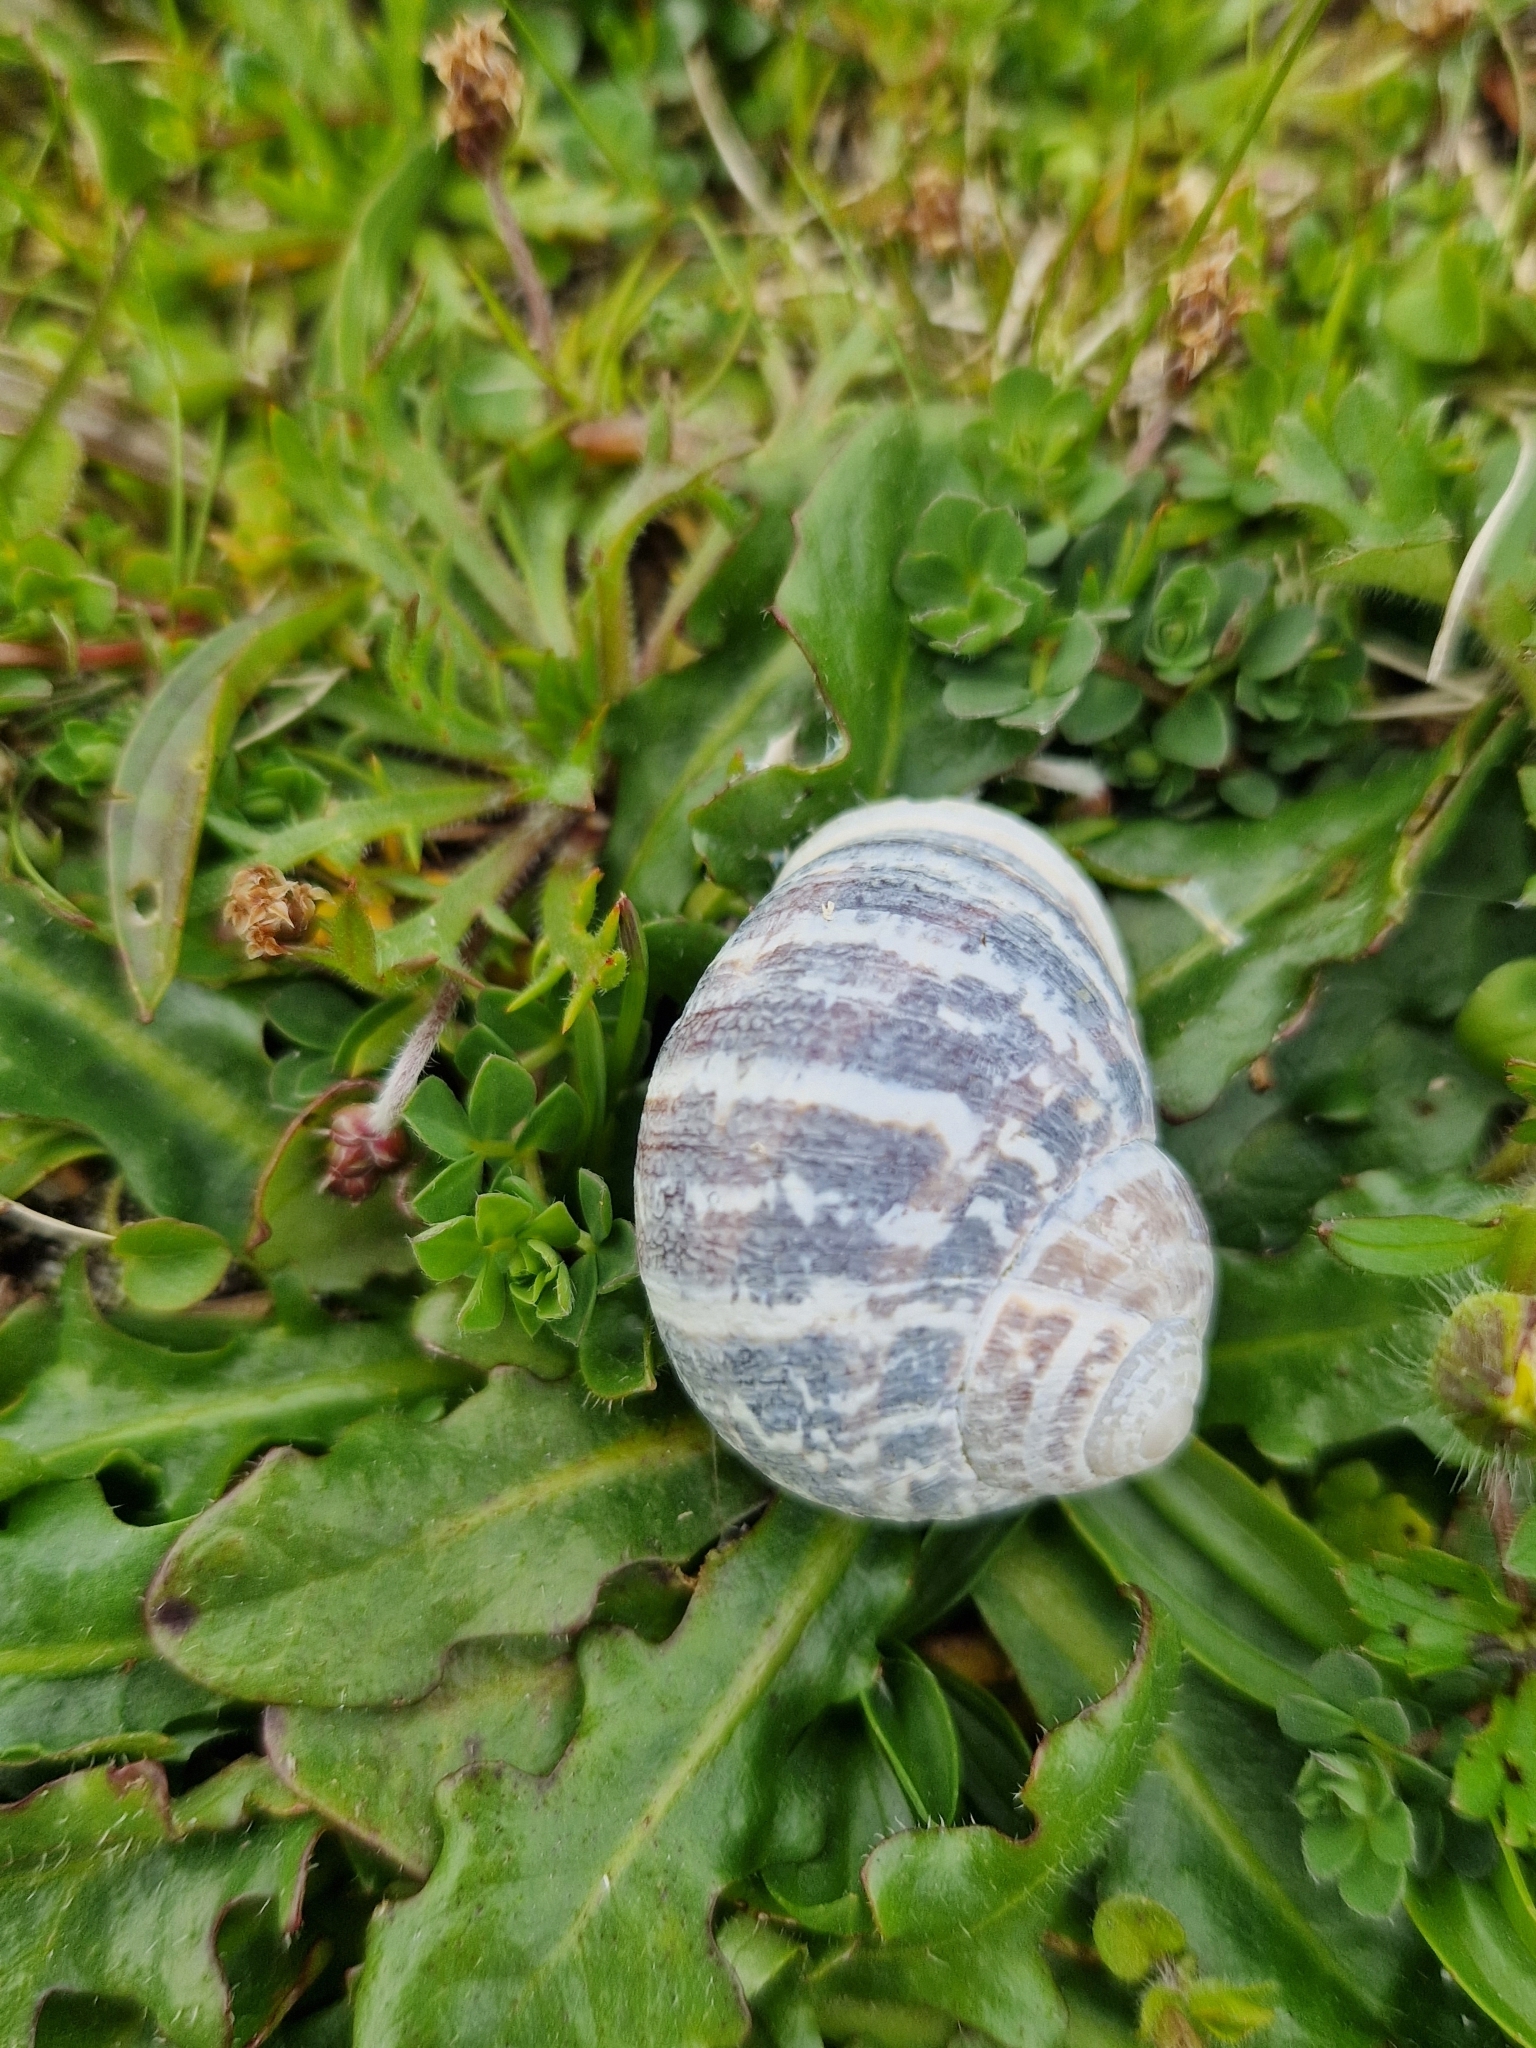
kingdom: Animalia
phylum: Mollusca
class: Gastropoda
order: Stylommatophora
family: Helicidae
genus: Cornu
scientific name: Cornu aspersum
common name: Brown garden snail
